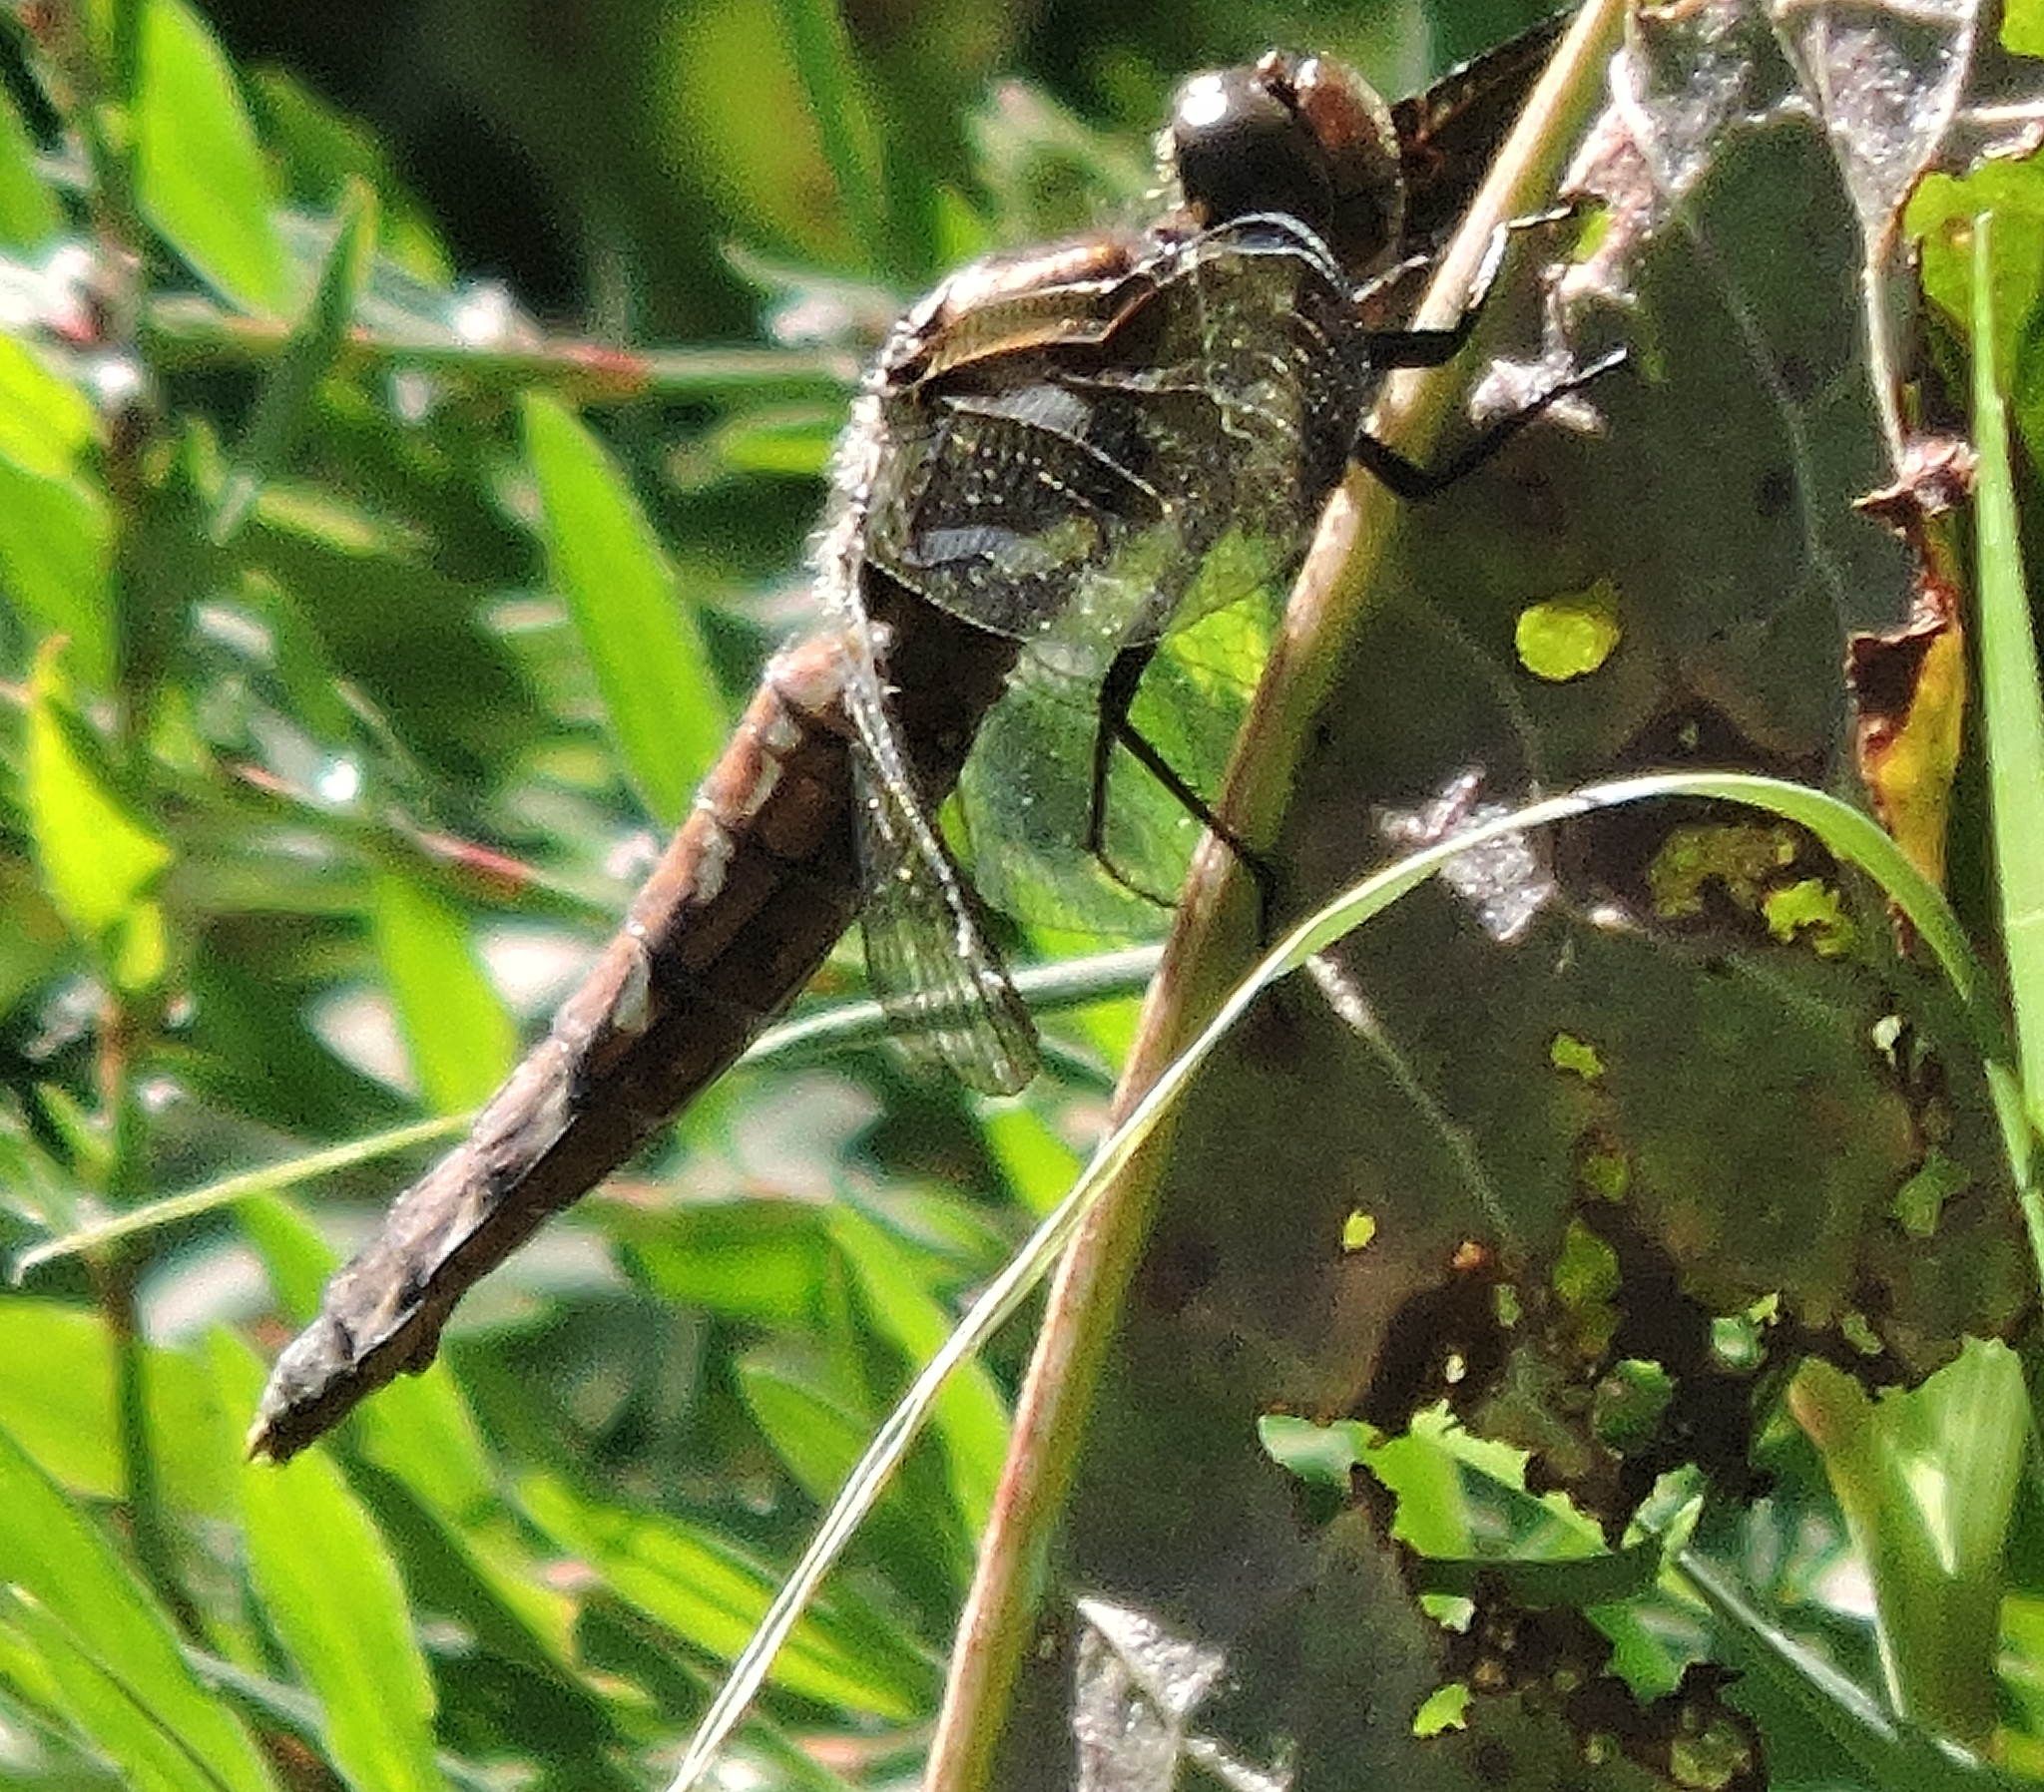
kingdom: Animalia
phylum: Arthropoda
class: Insecta
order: Odonata
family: Libellulidae
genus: Plathemis
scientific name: Plathemis lydia
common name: Common whitetail
